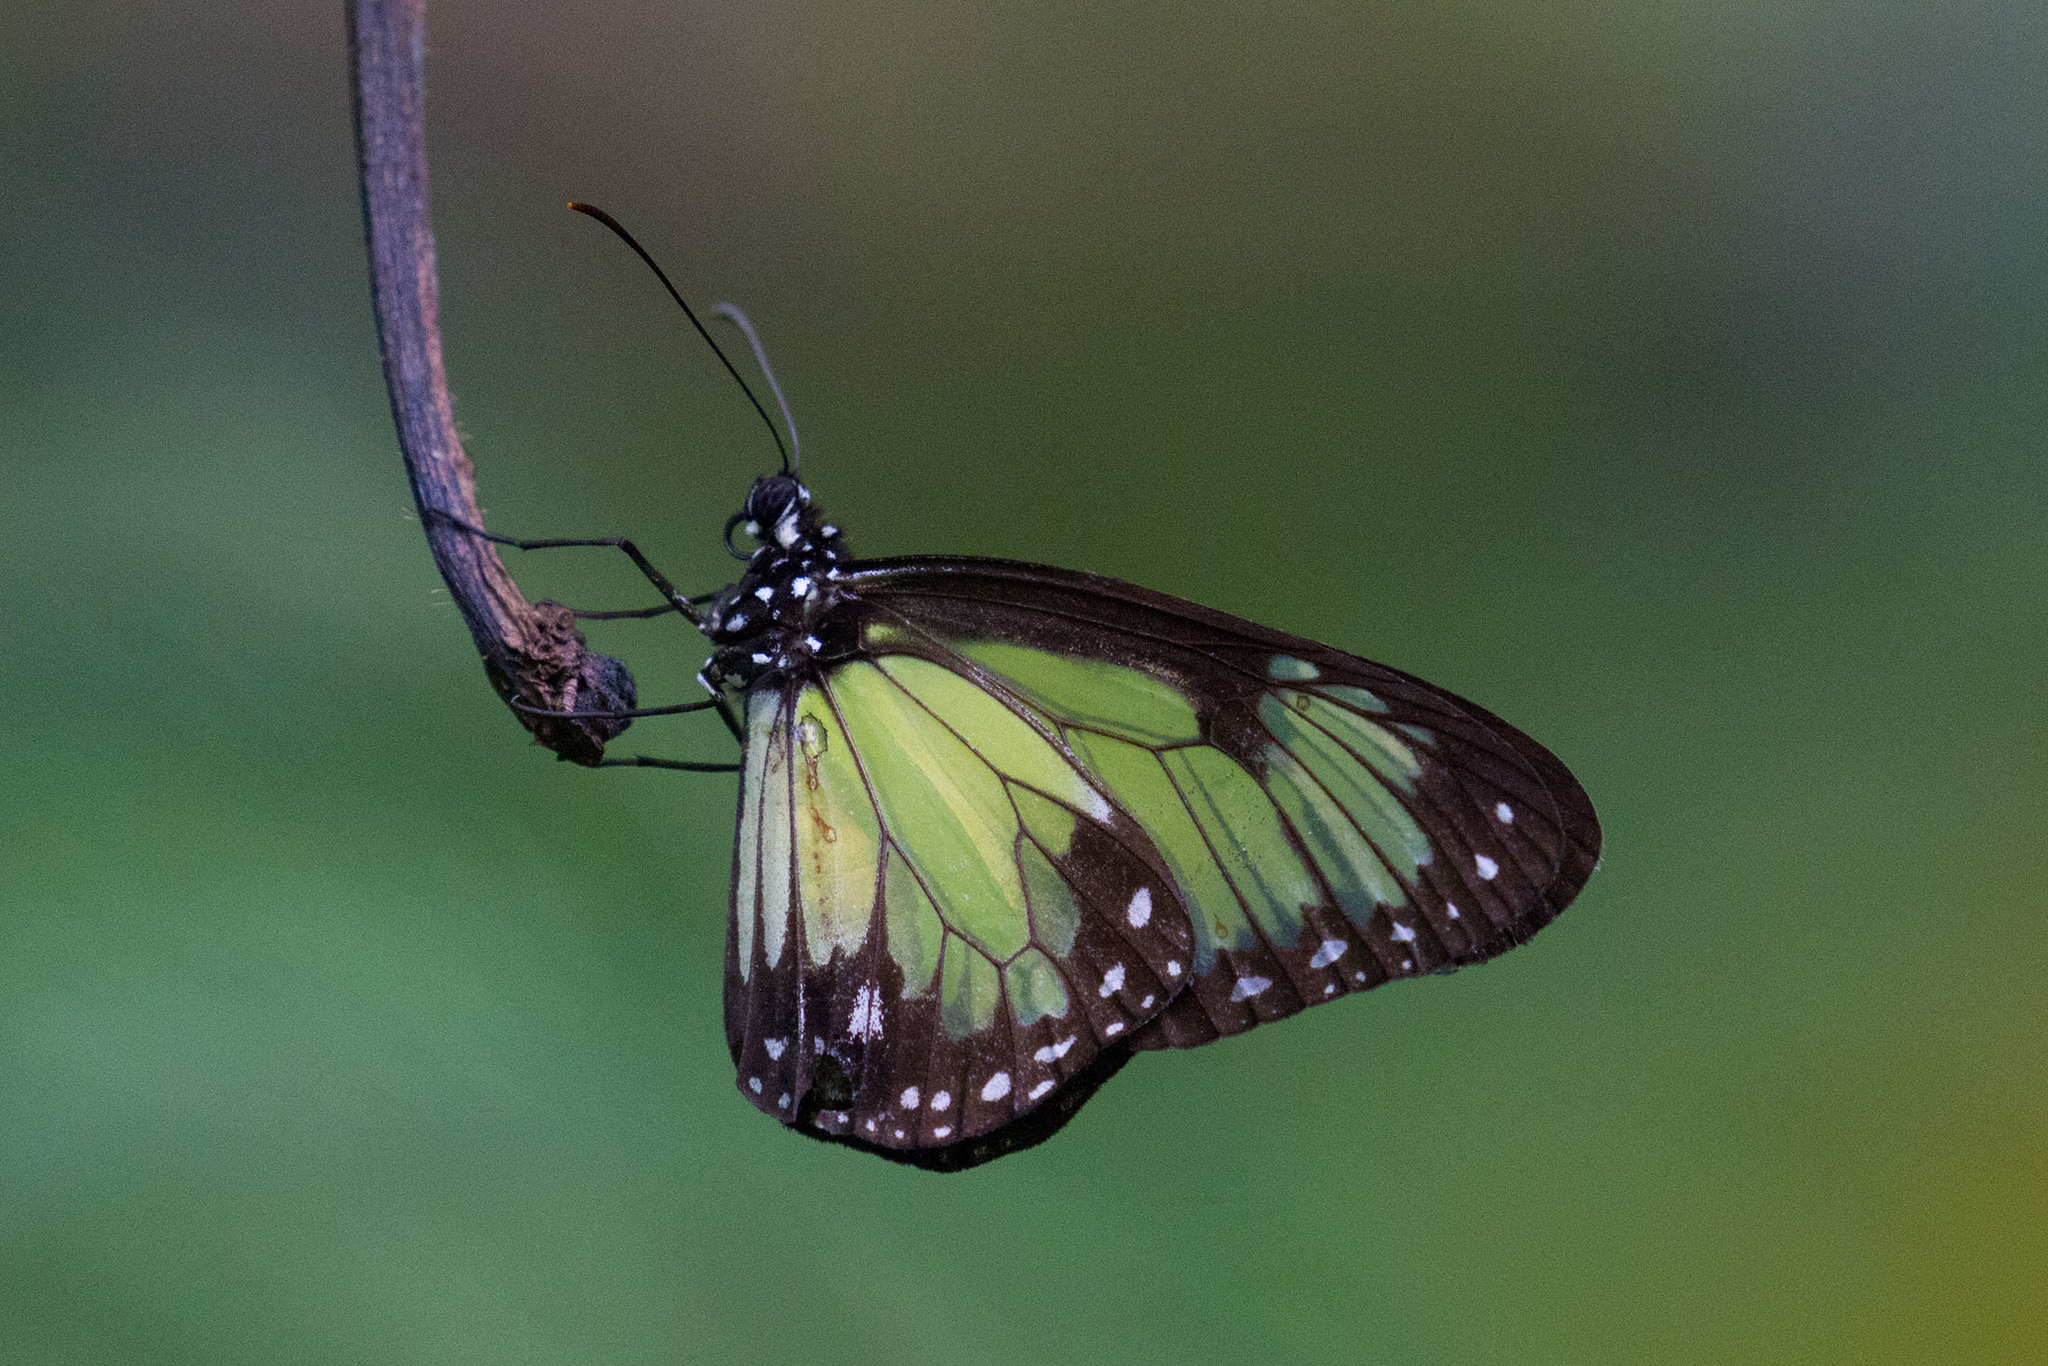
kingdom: Animalia
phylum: Arthropoda
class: Insecta
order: Lepidoptera
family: Nymphalidae
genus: Parantica
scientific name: Parantica schenkii
